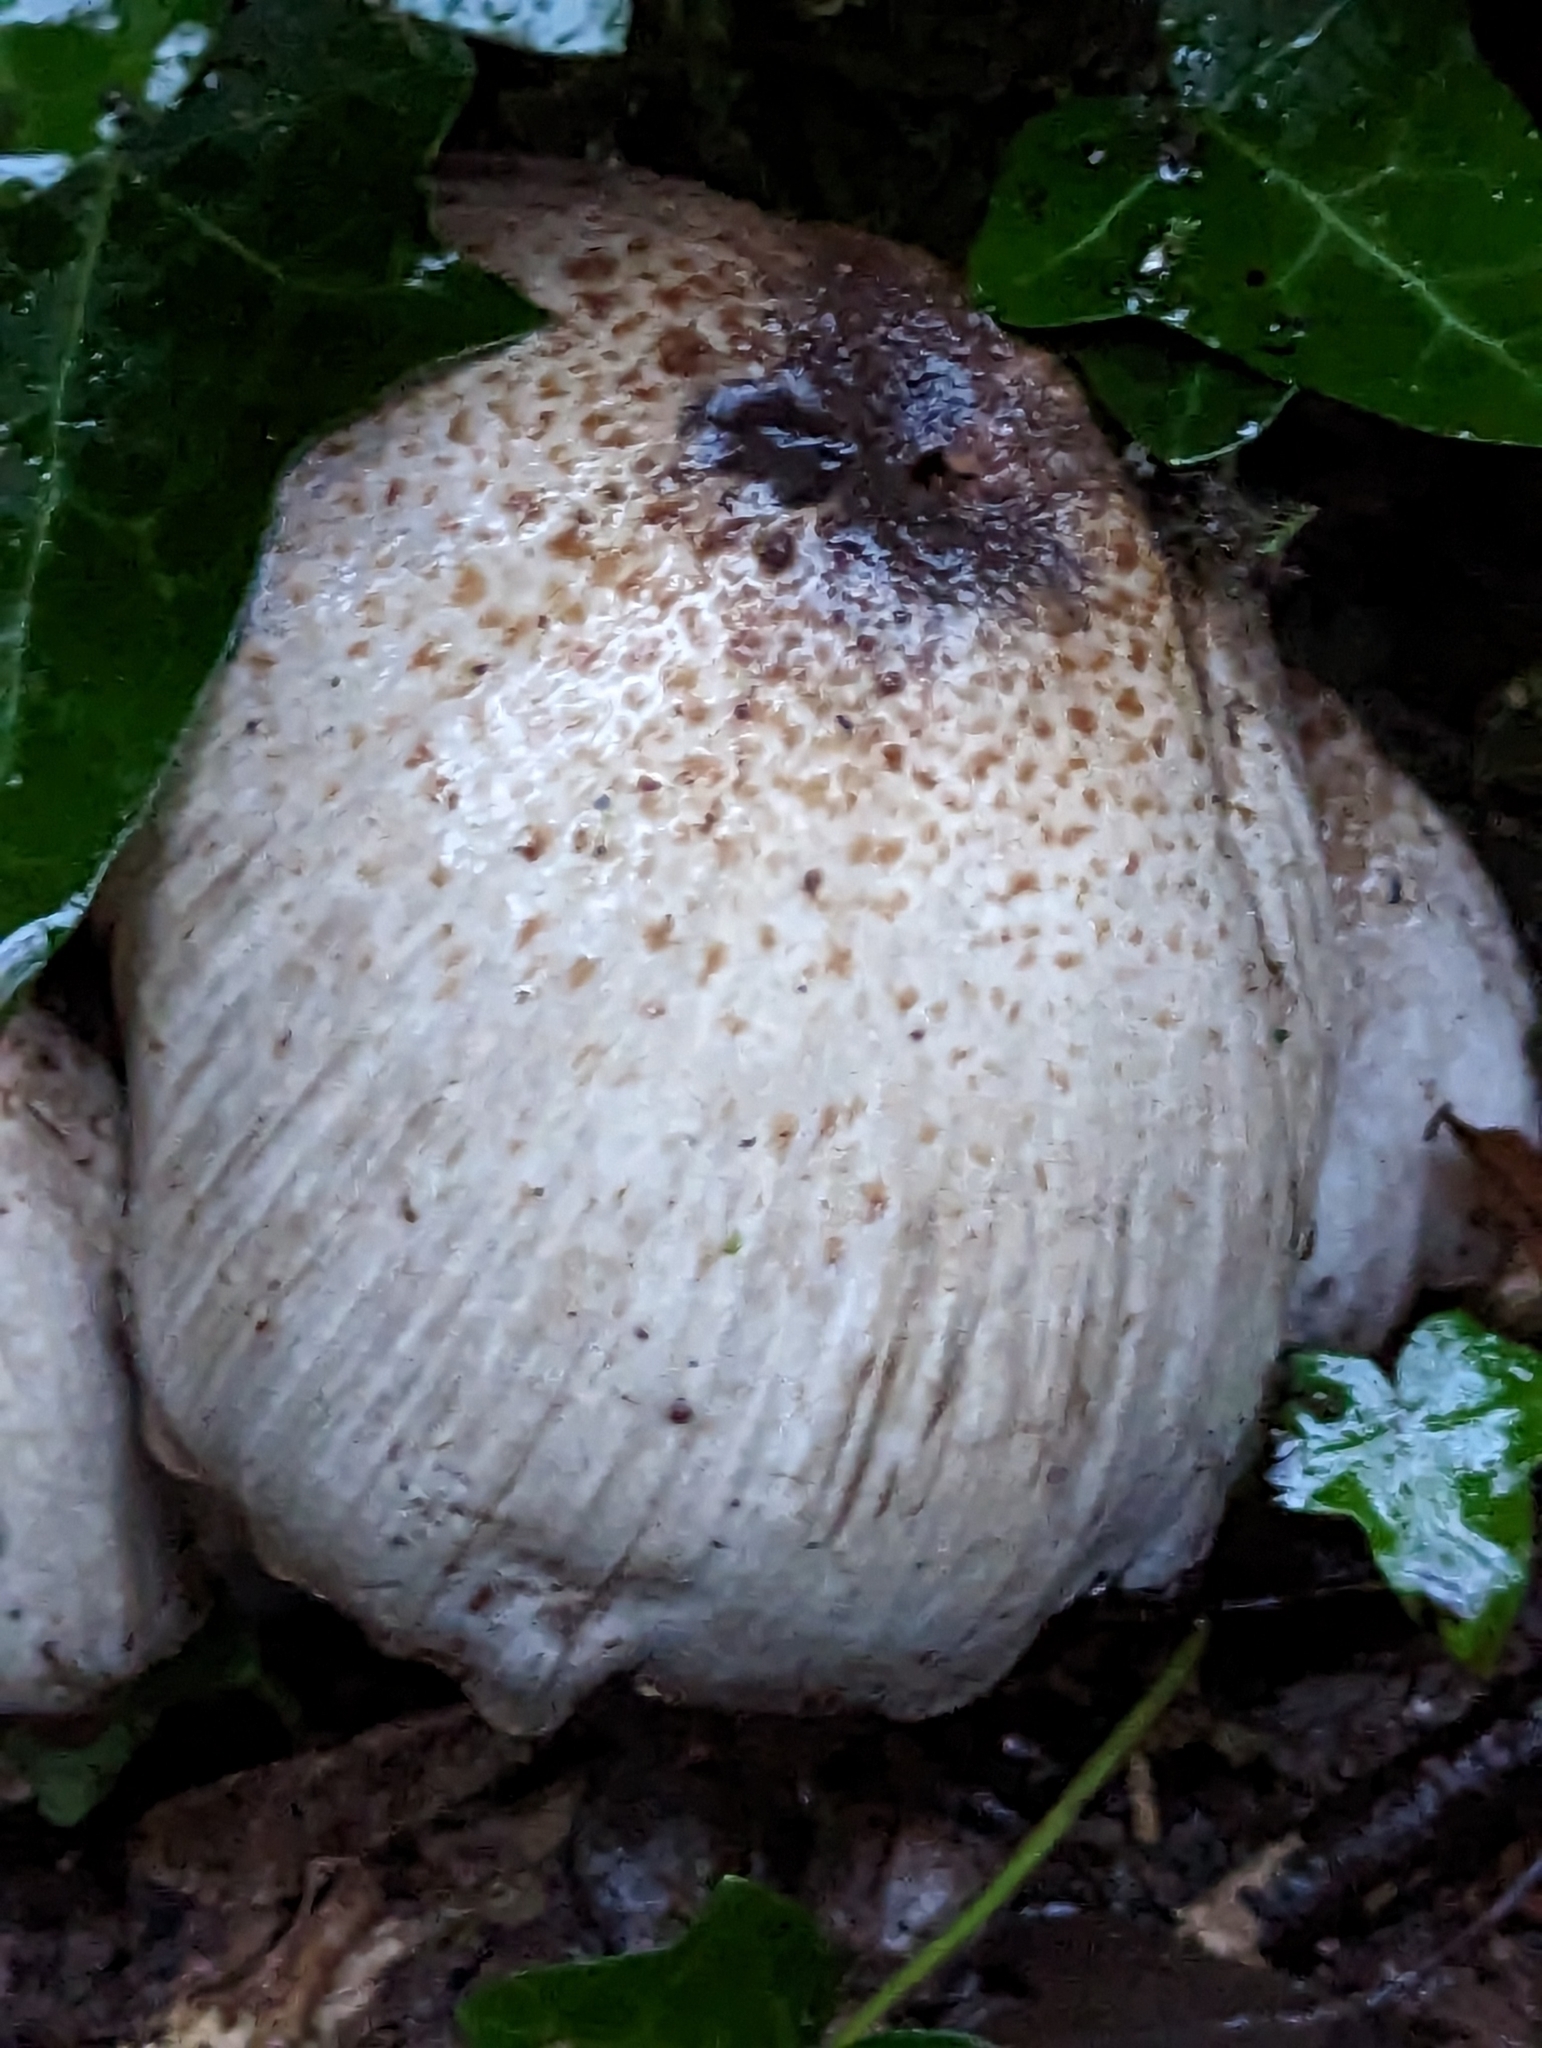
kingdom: Fungi
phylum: Basidiomycota
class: Agaricomycetes
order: Agaricales
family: Psathyrellaceae
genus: Coprinopsis
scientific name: Coprinopsis atramentaria
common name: Common ink-cap
